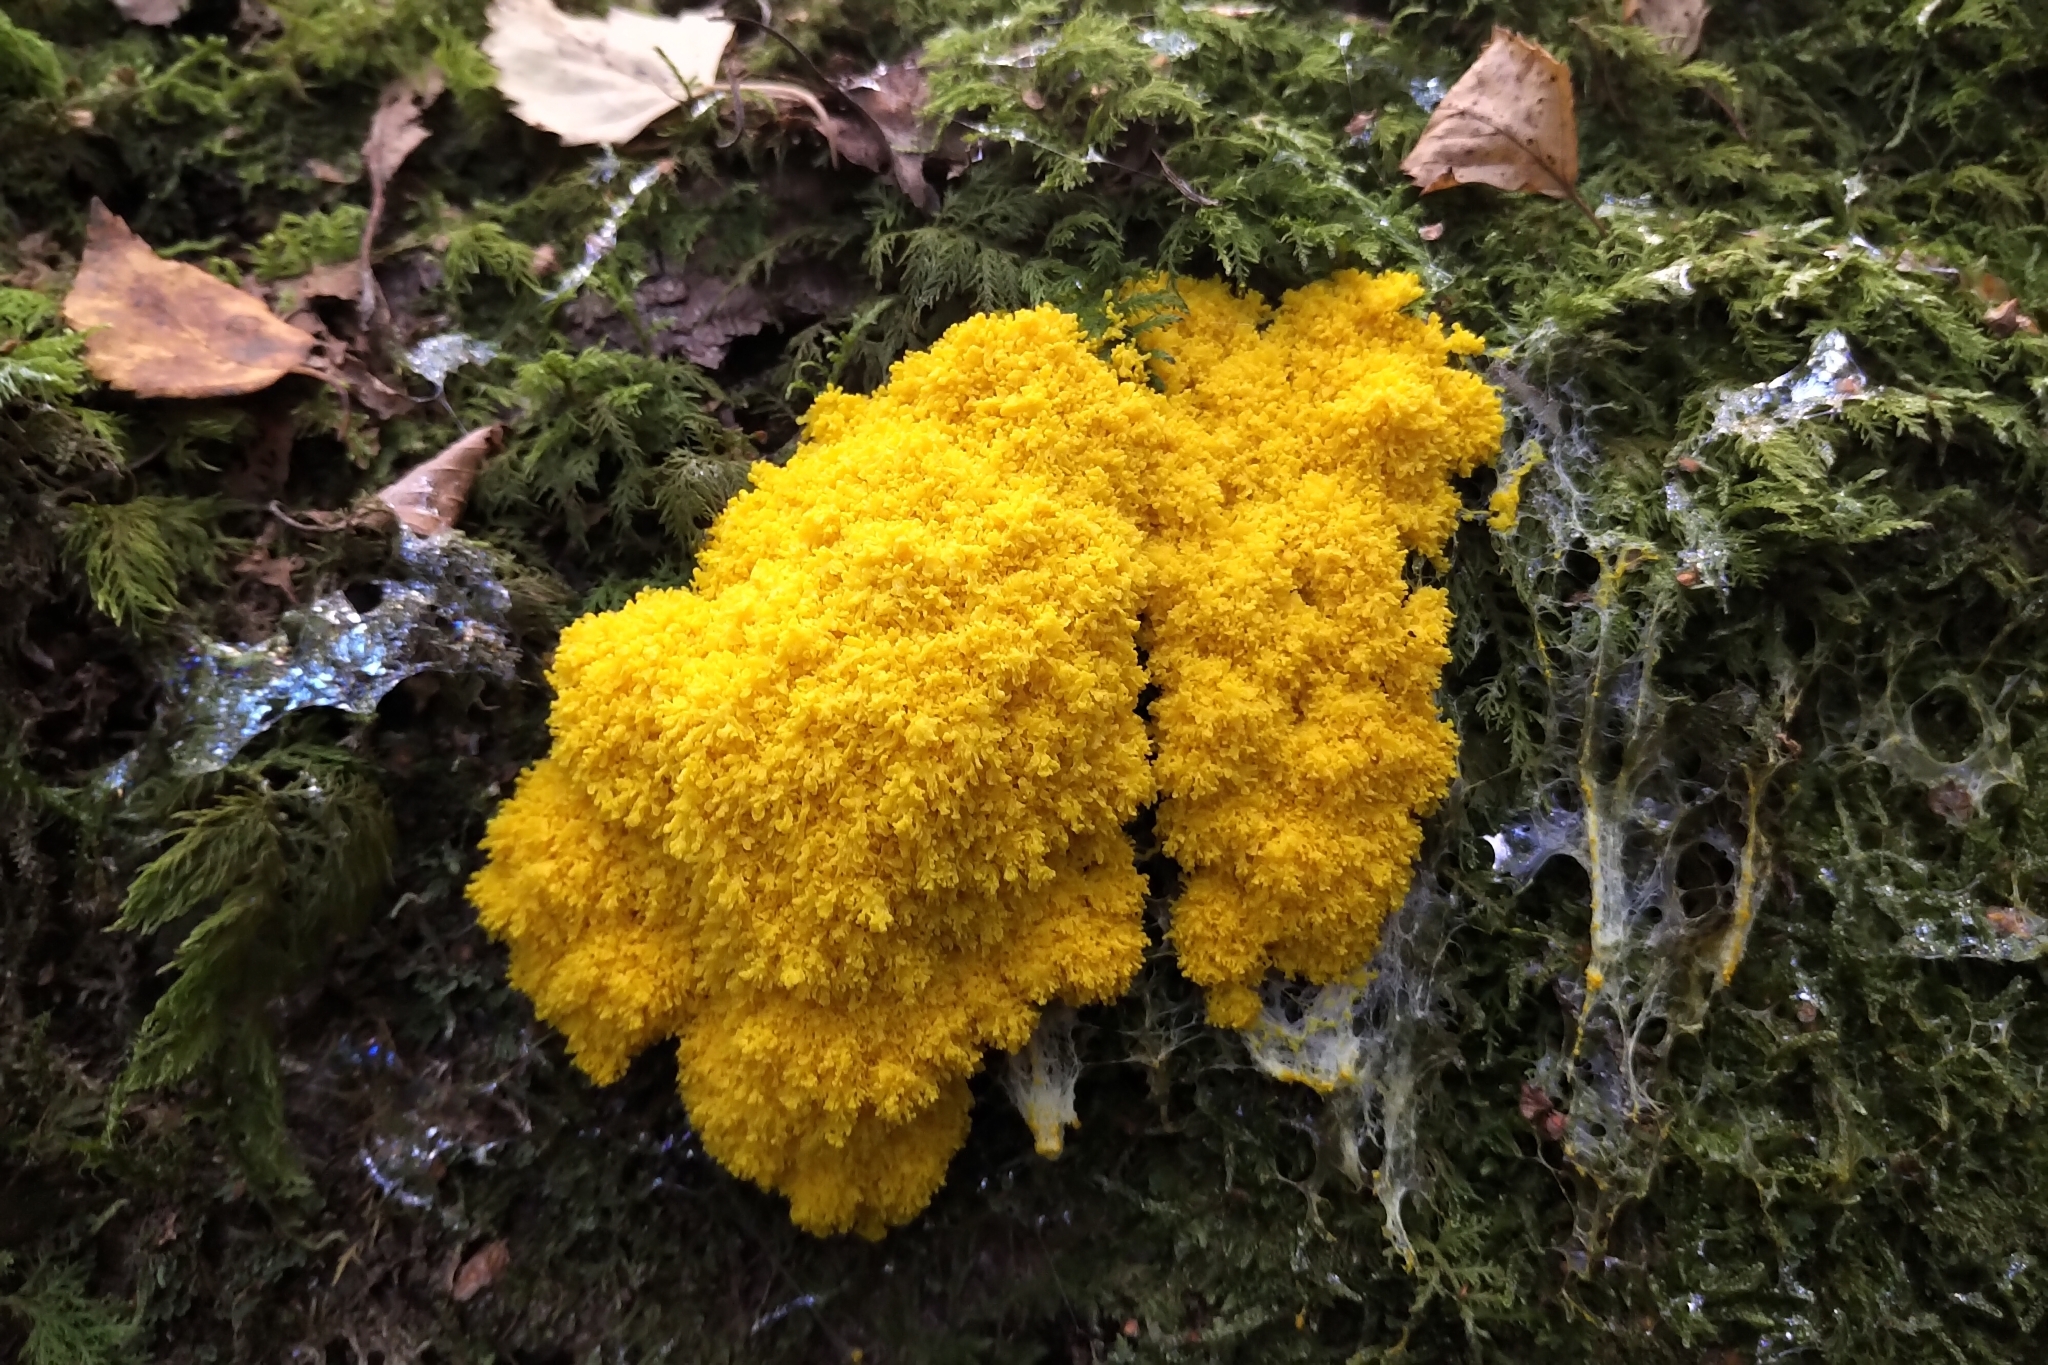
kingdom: Protozoa
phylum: Mycetozoa
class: Myxomycetes
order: Physarales
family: Physaraceae
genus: Fuligo
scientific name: Fuligo septica
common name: Dog vomit slime mold
